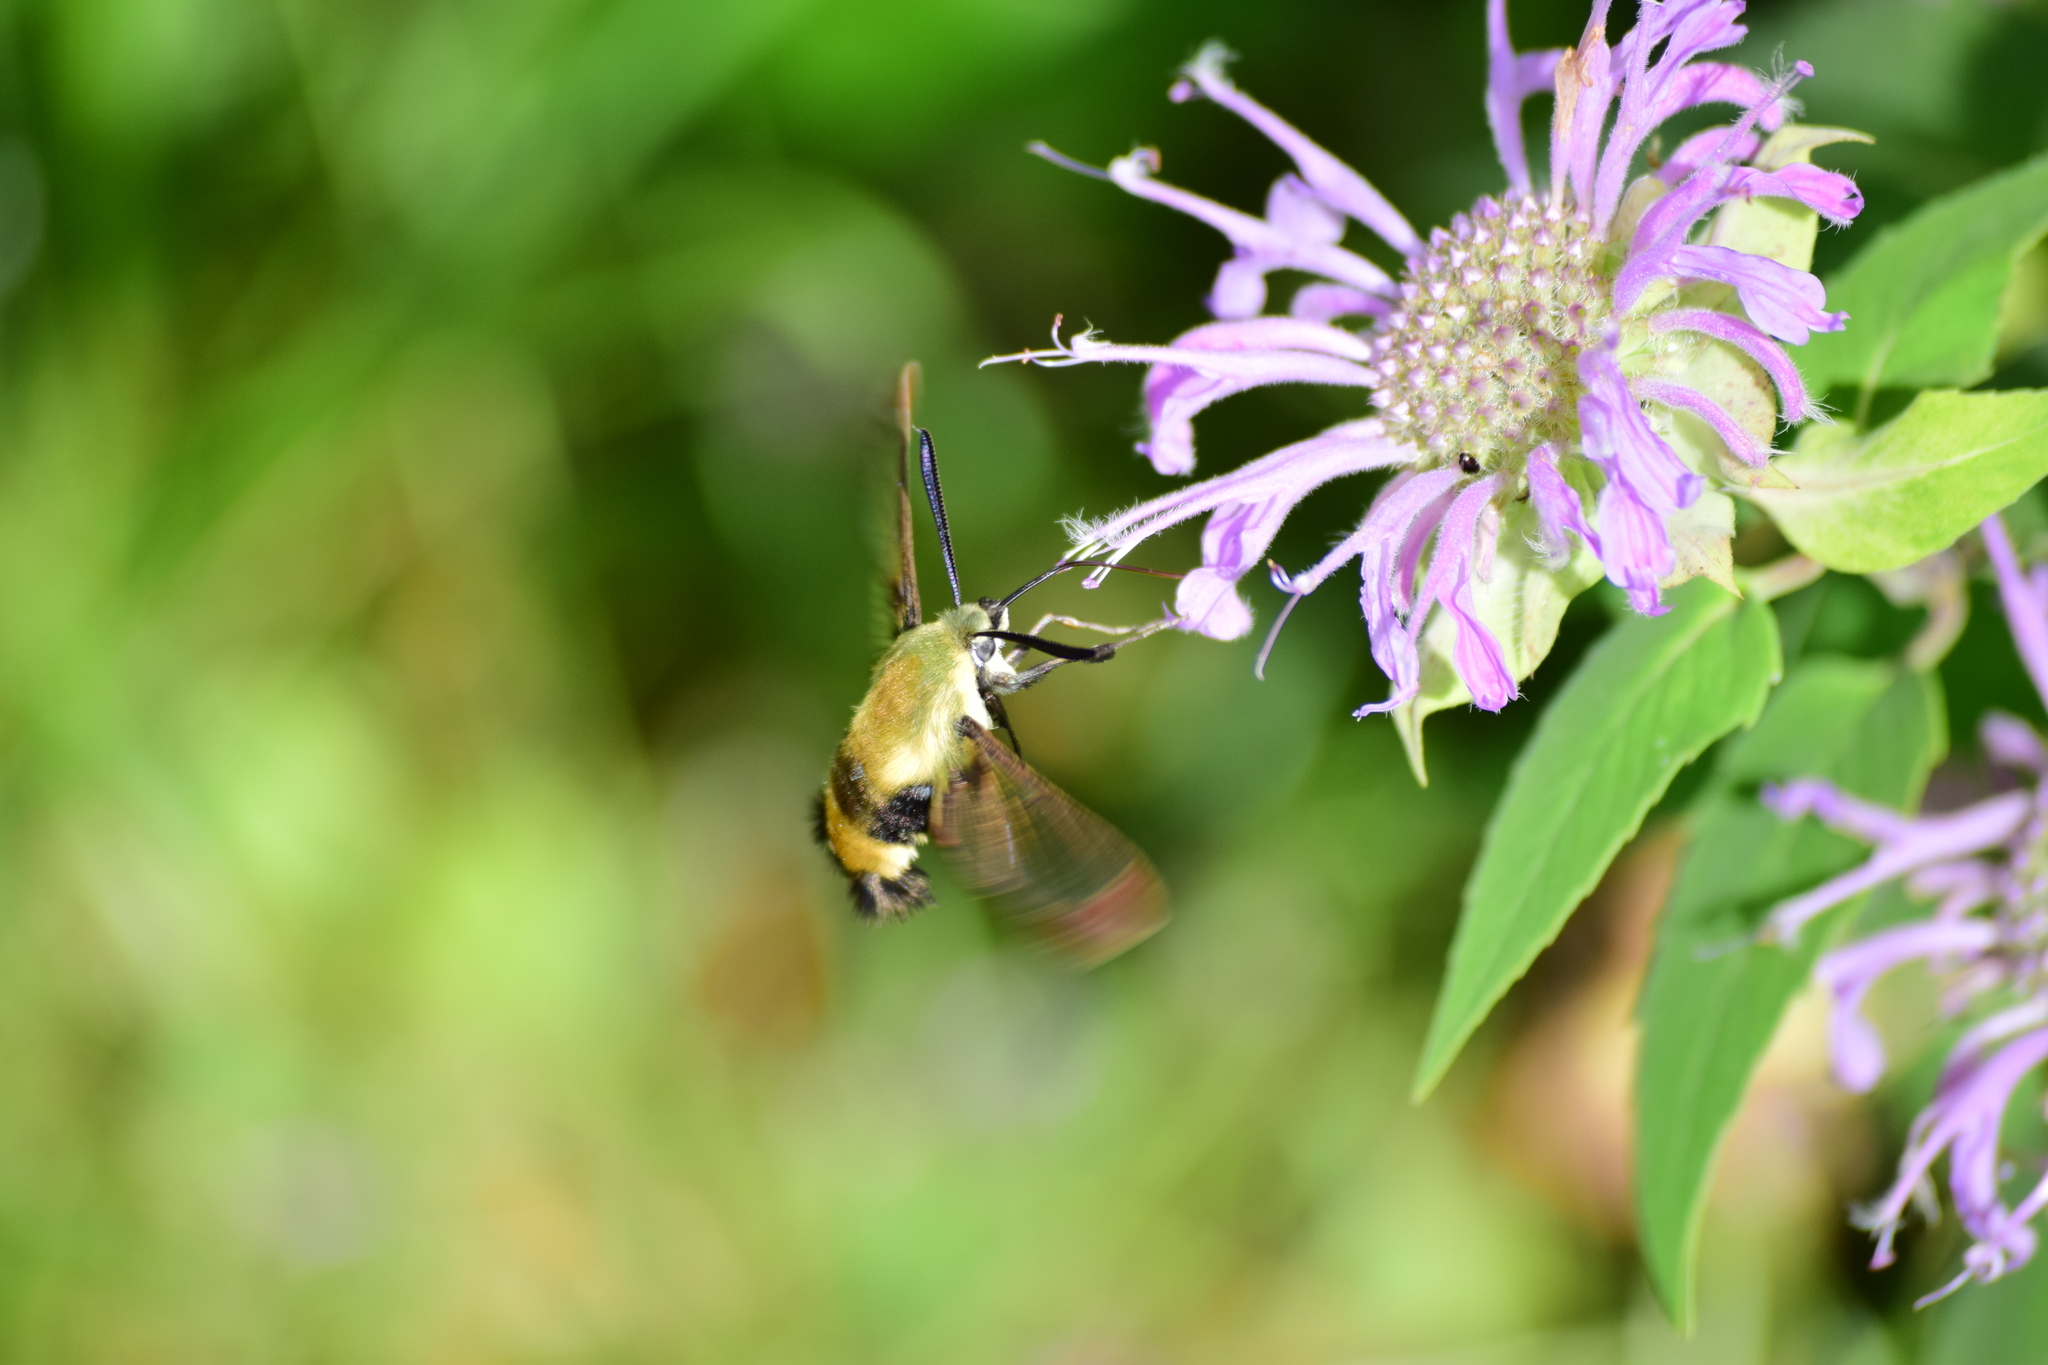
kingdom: Animalia
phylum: Arthropoda
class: Insecta
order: Lepidoptera
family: Sphingidae
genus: Hemaris
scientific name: Hemaris diffinis
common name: Bumblebee moth
